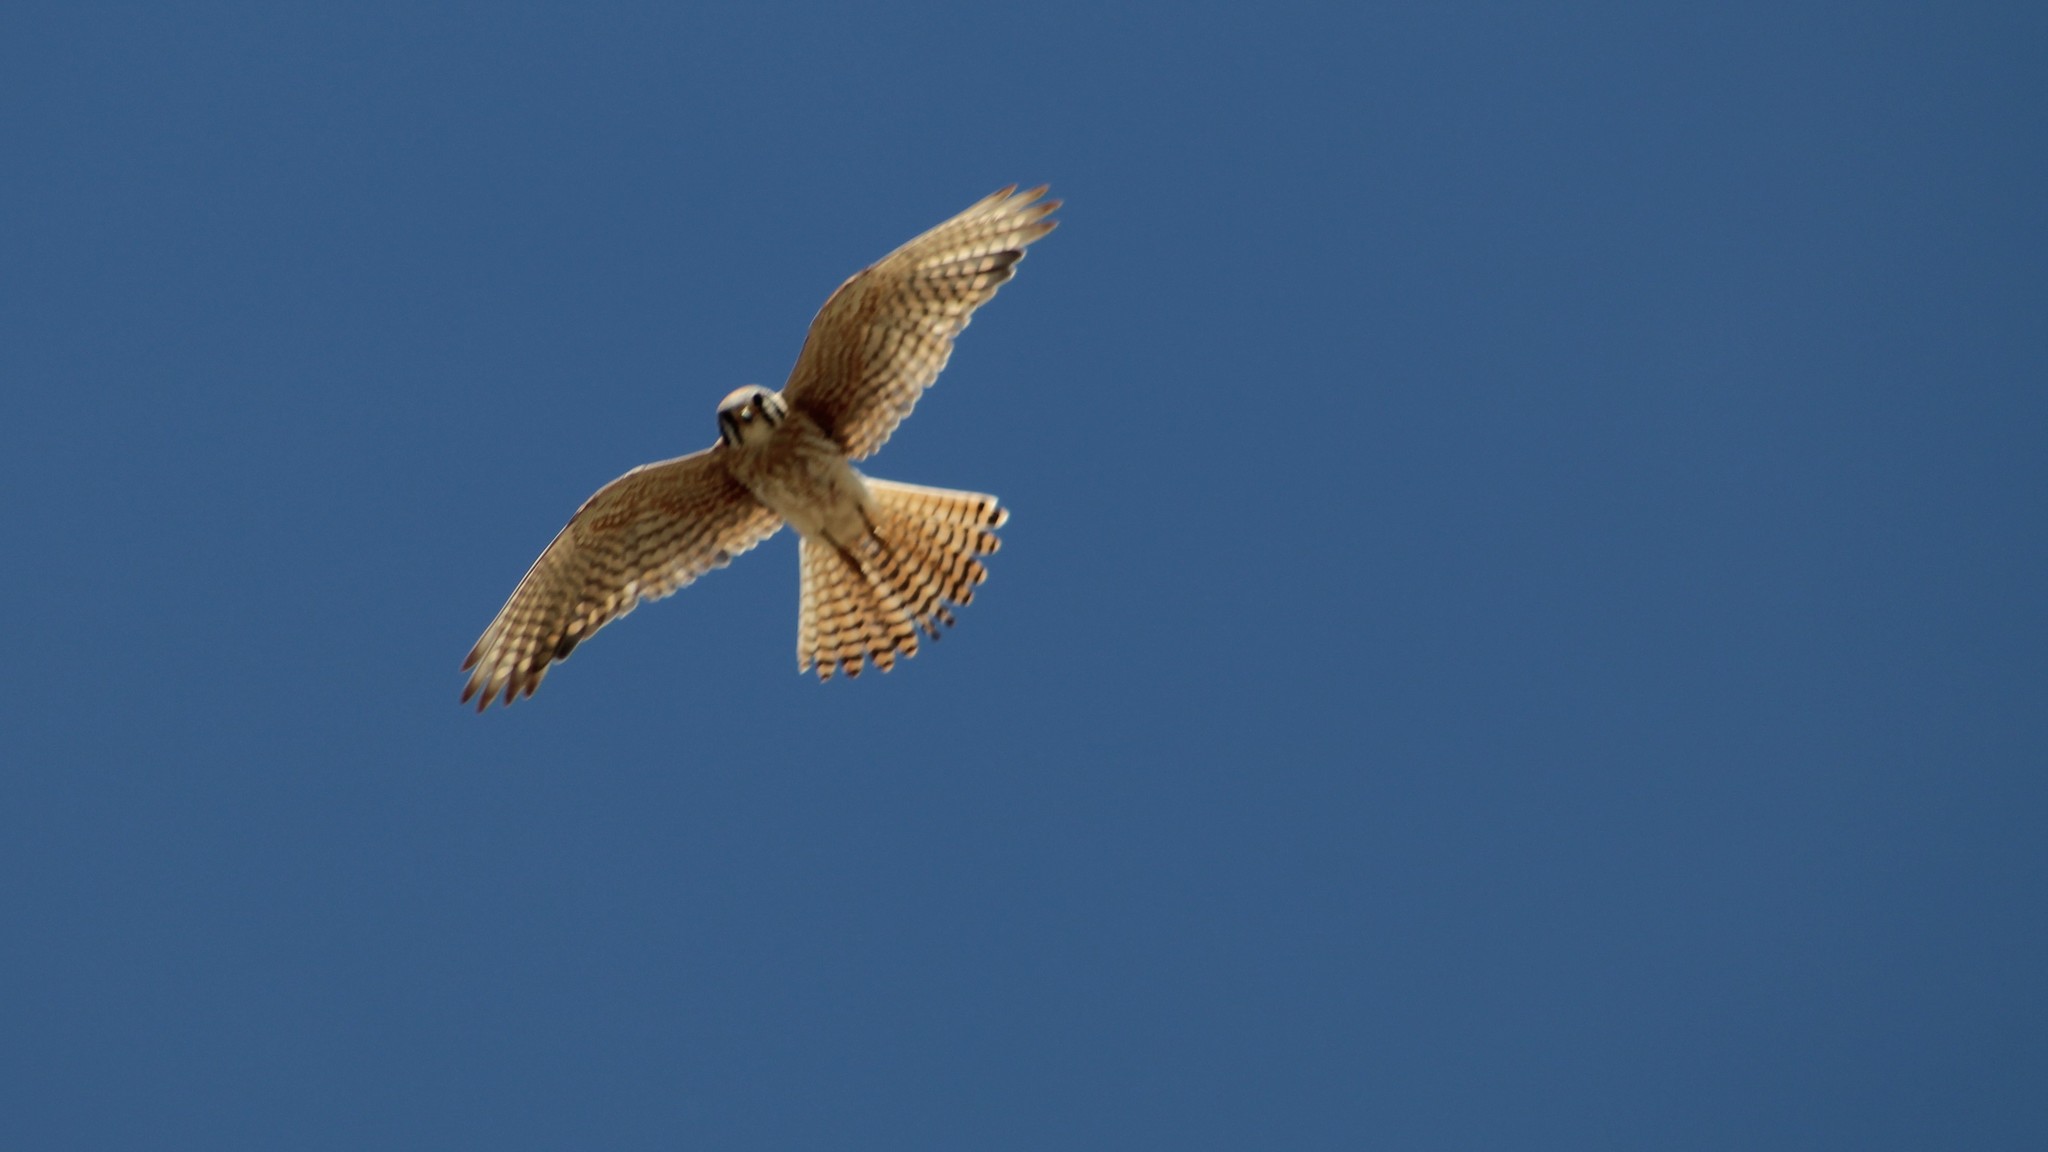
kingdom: Animalia
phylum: Chordata
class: Aves
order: Falconiformes
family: Falconidae
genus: Falco
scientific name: Falco sparverius
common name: American kestrel
